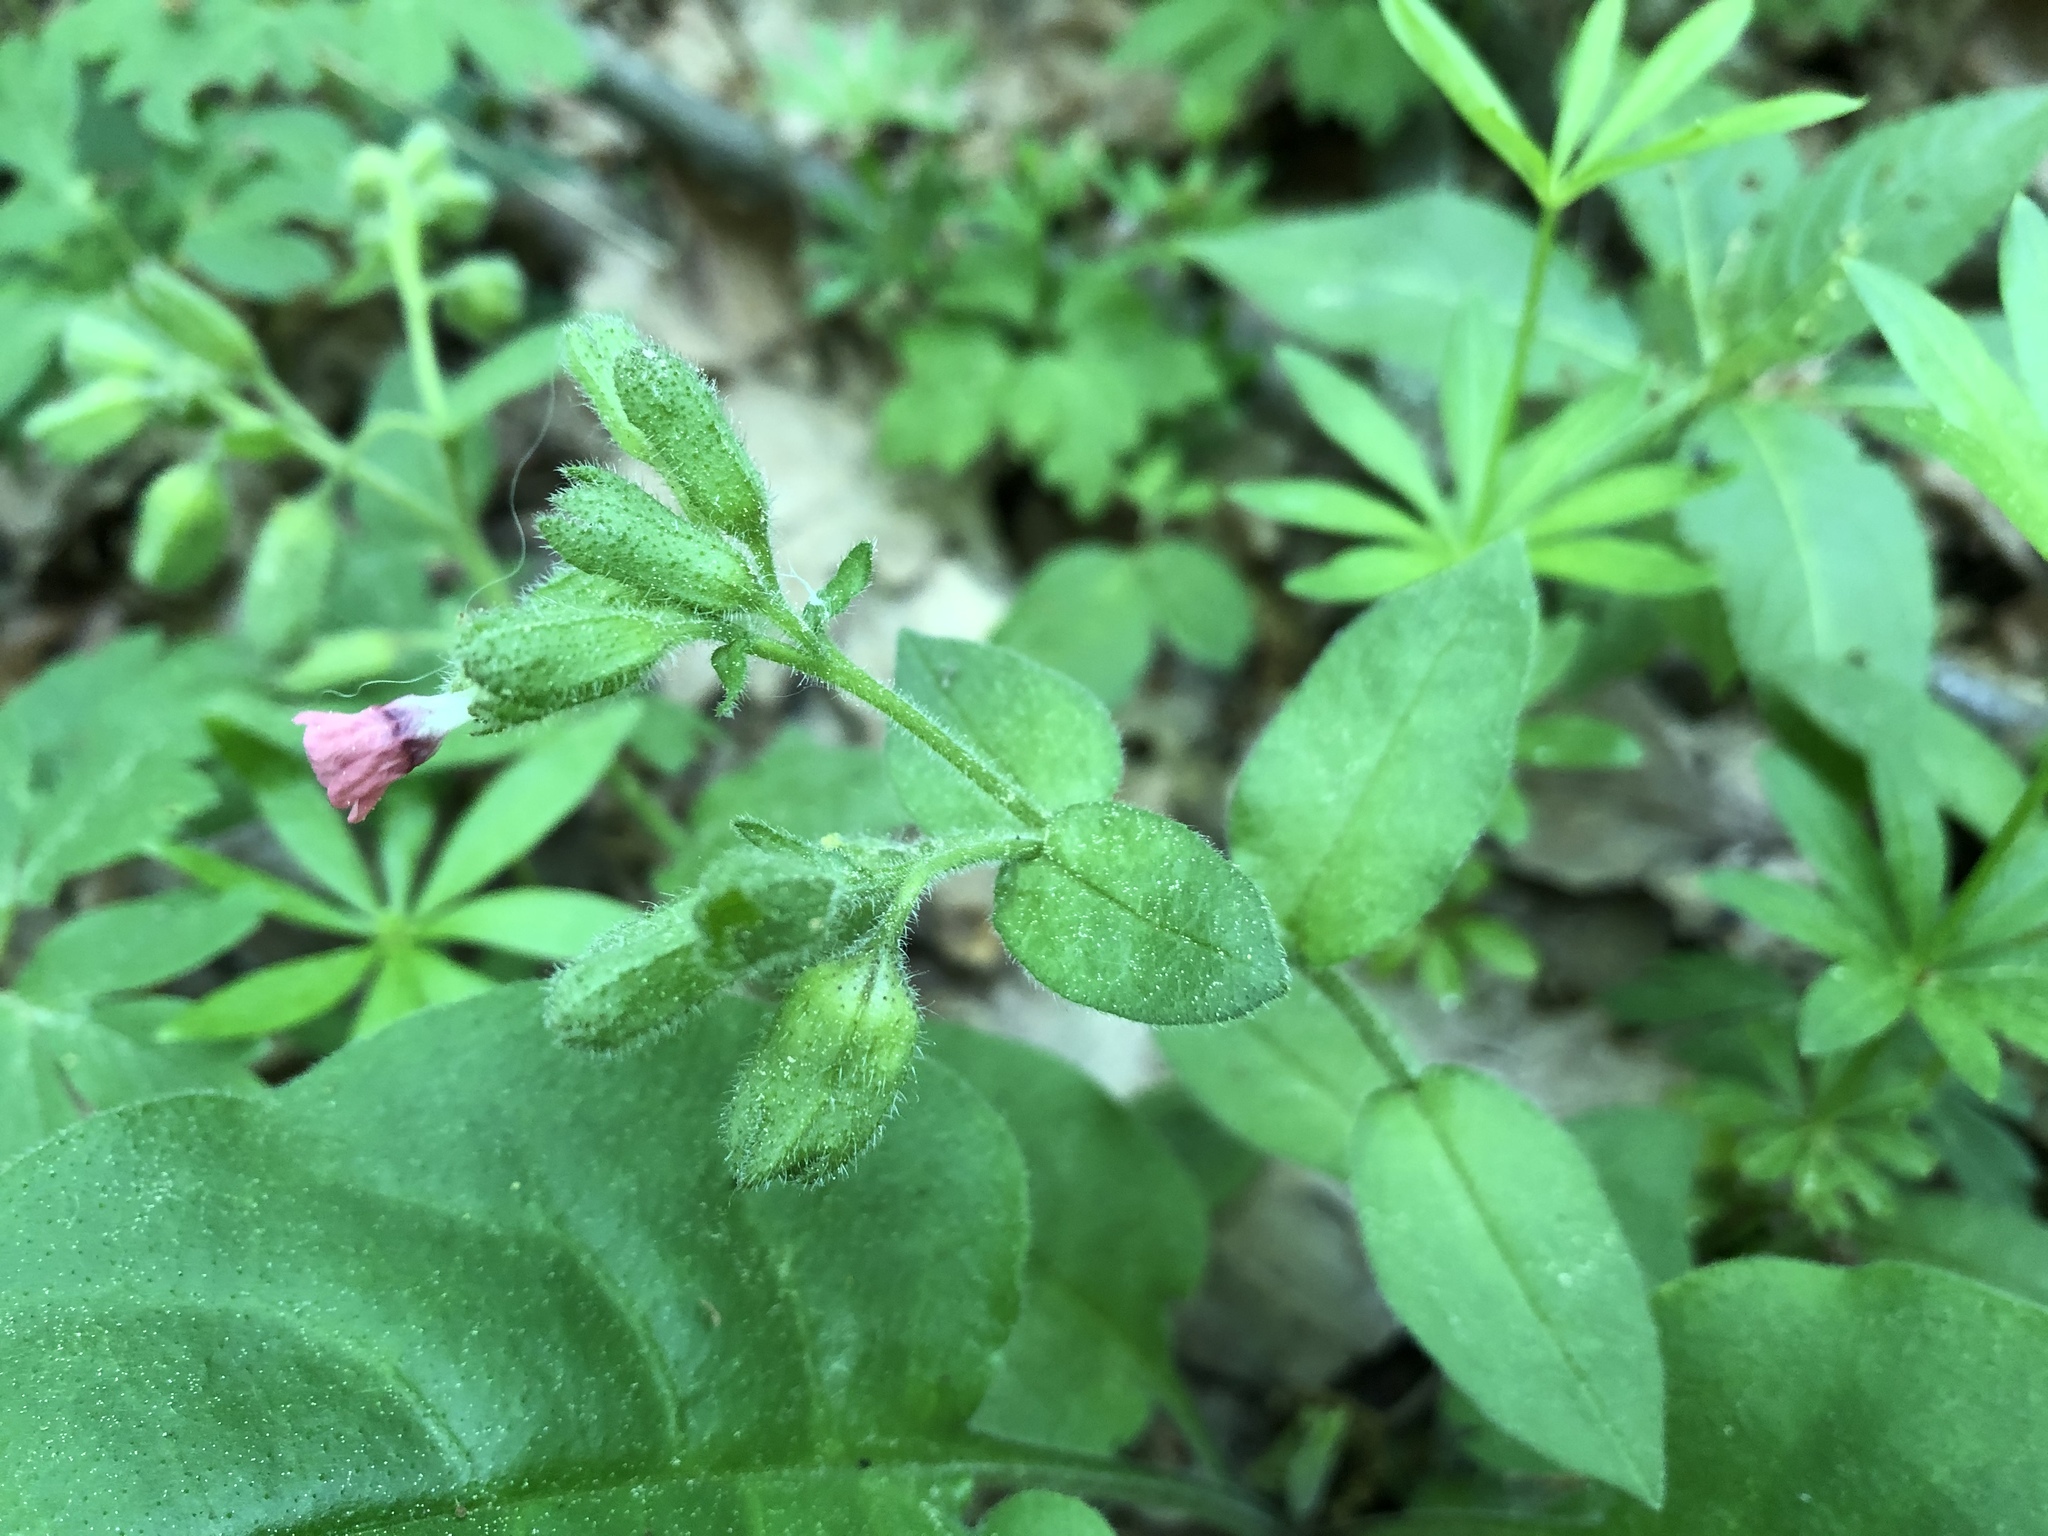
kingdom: Plantae
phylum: Tracheophyta
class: Magnoliopsida
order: Boraginales
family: Boraginaceae
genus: Pulmonaria
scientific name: Pulmonaria obscura
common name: Suffolk lungwort
